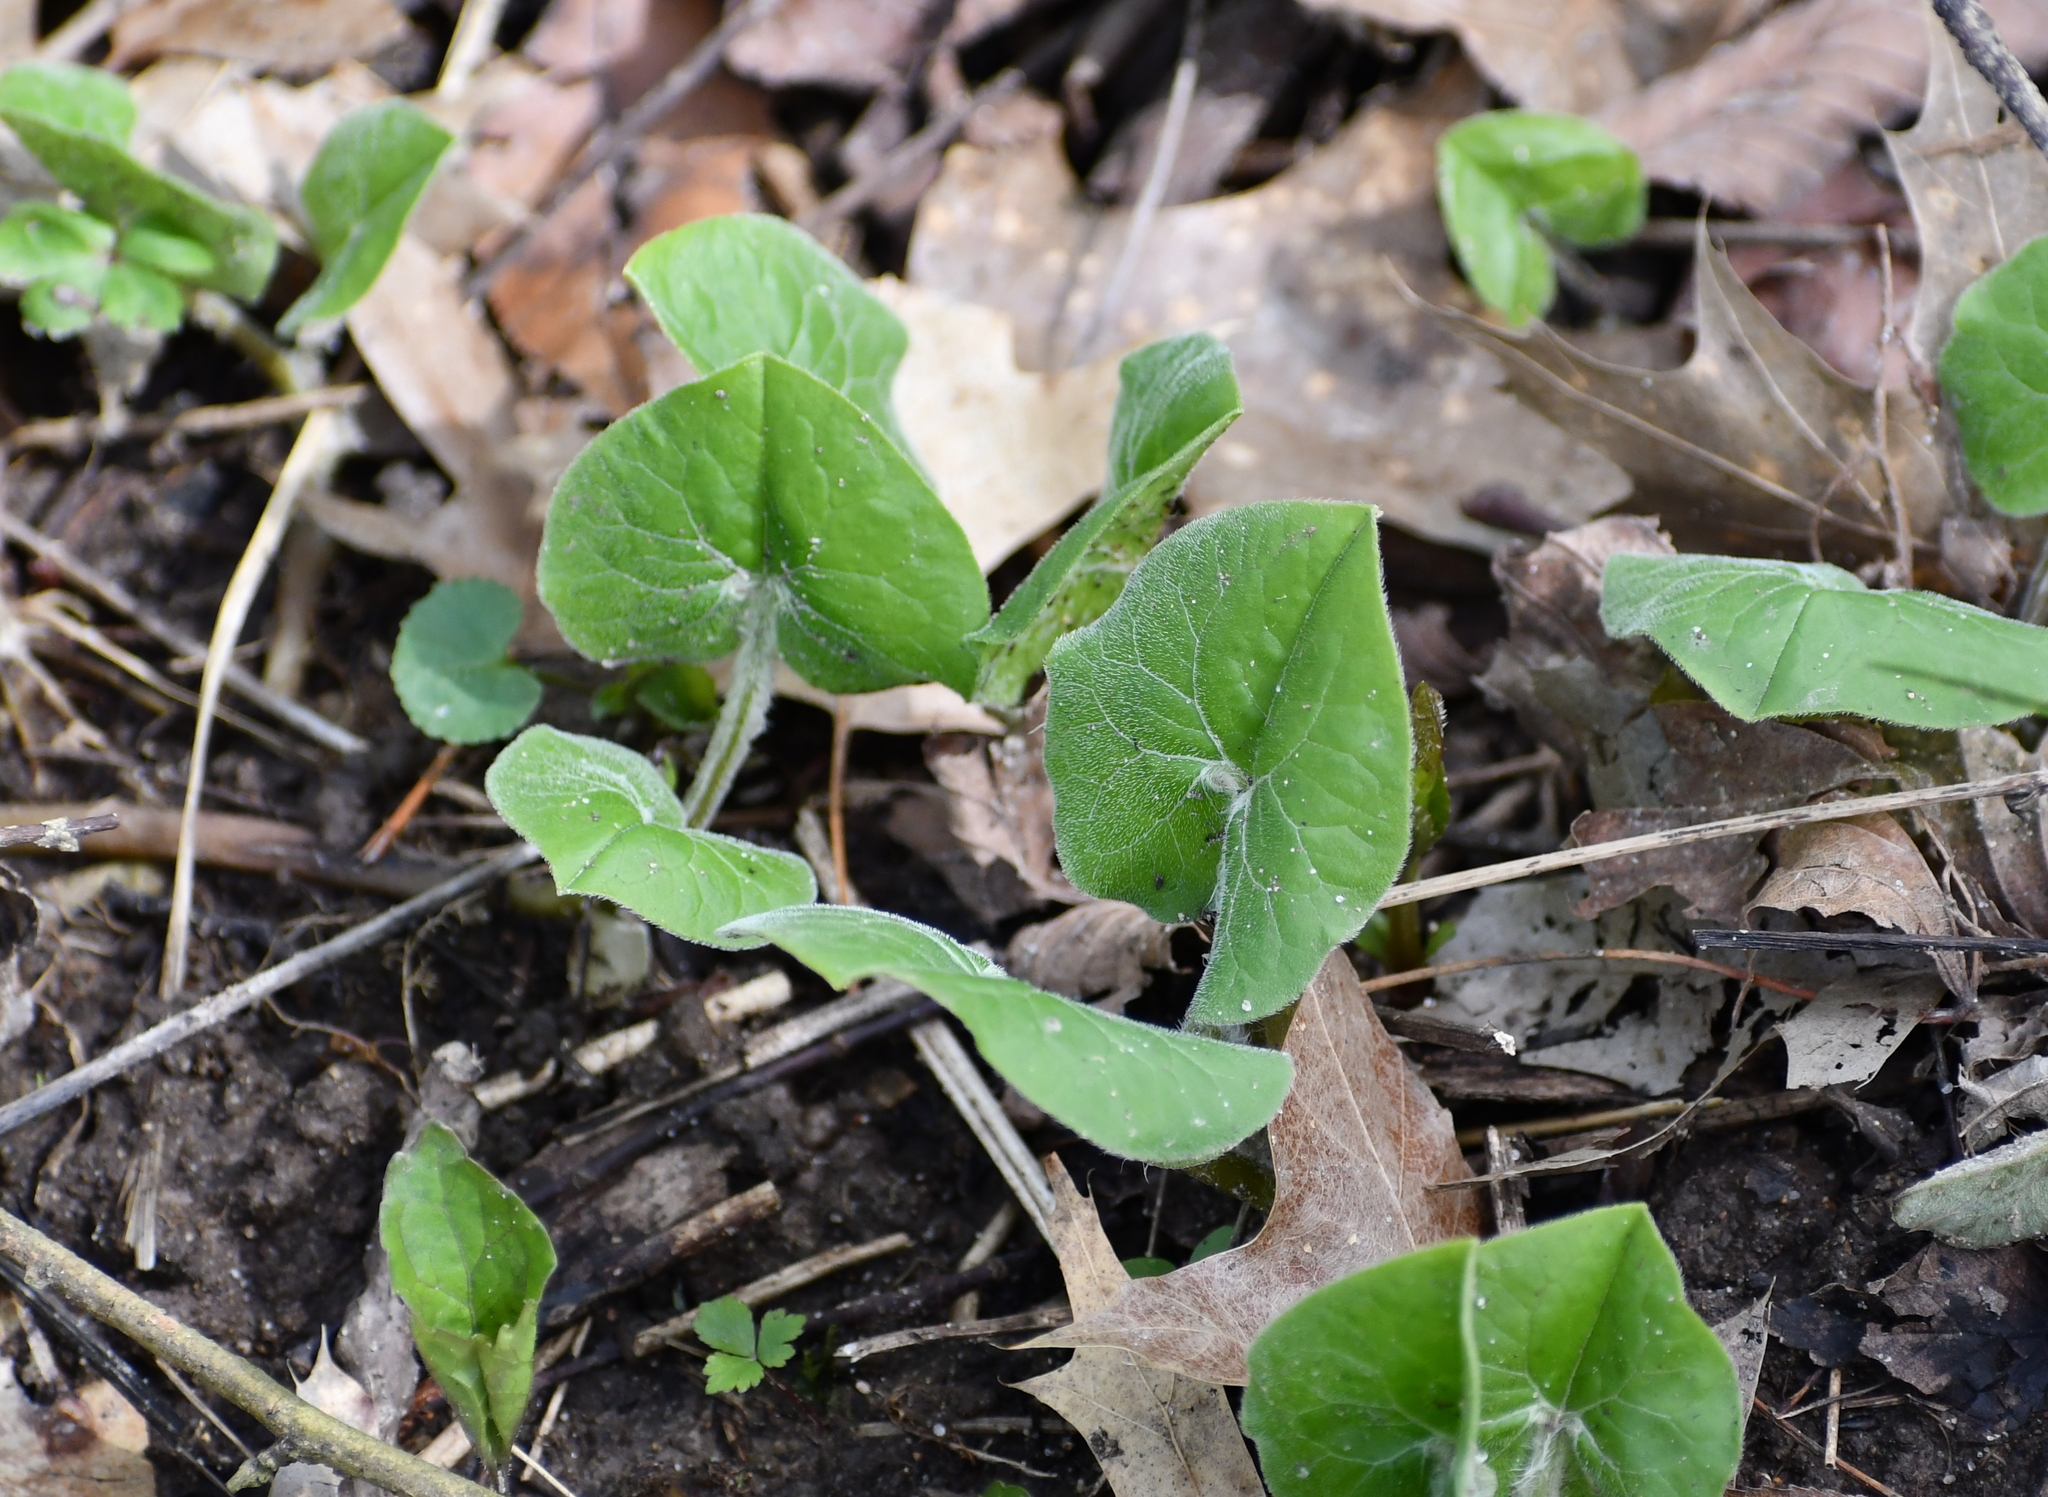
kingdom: Plantae
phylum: Tracheophyta
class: Magnoliopsida
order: Piperales
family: Aristolochiaceae
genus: Asarum
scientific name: Asarum canadense
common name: Wild ginger
